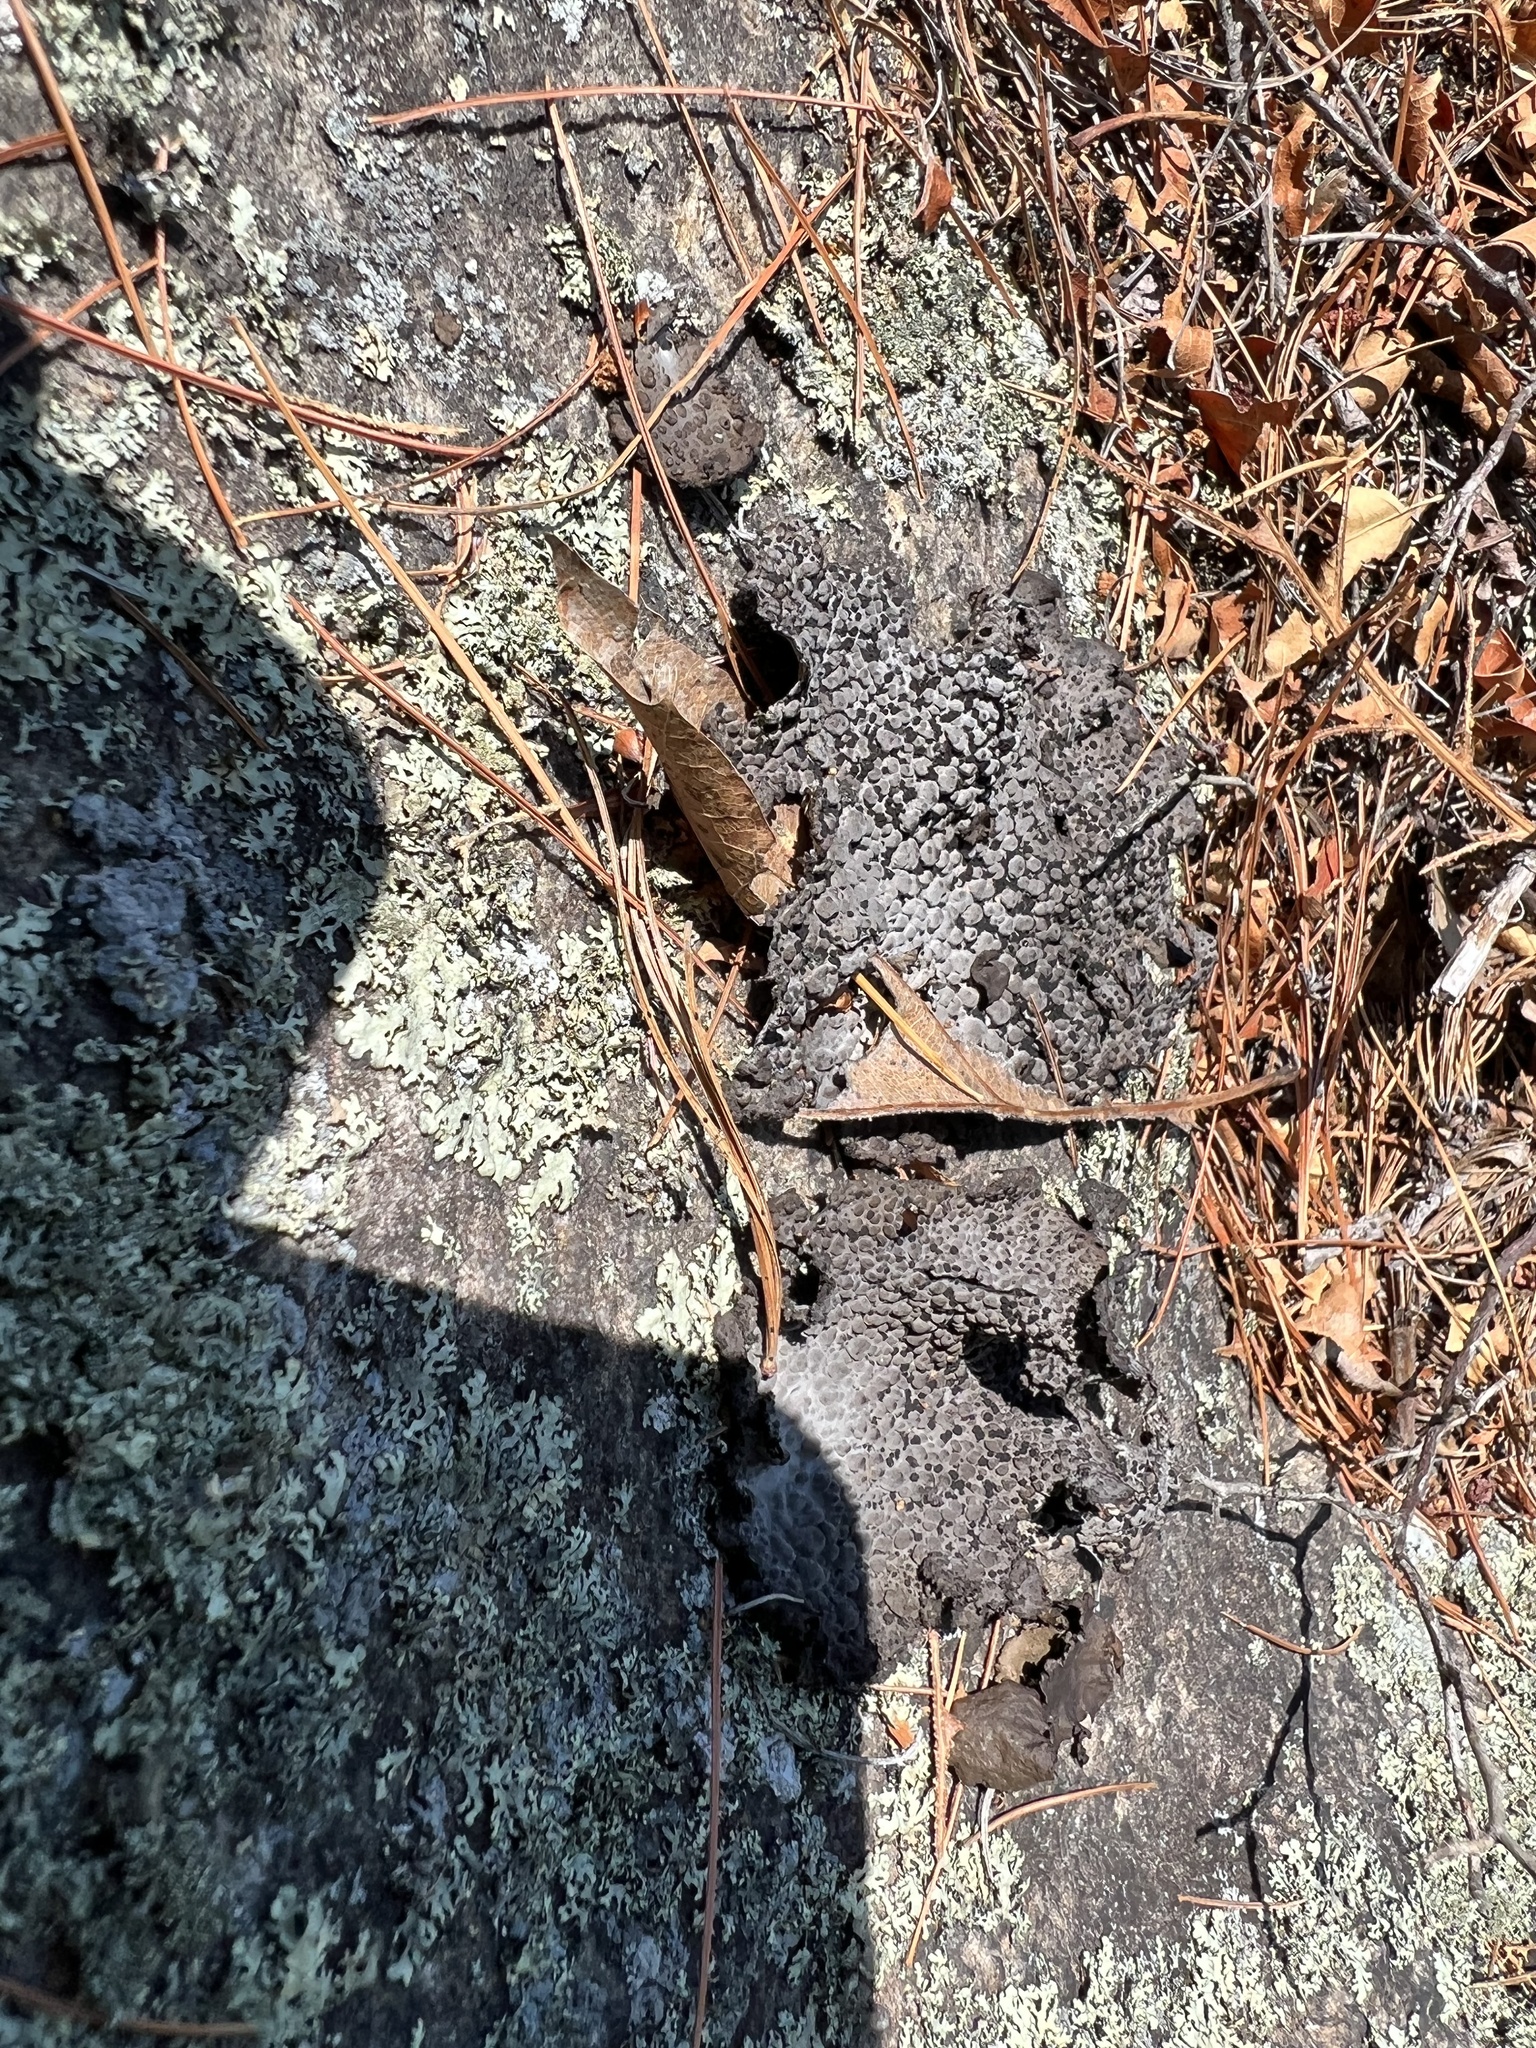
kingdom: Fungi
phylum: Ascomycota
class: Lecanoromycetes
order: Umbilicariales
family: Umbilicariaceae
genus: Lasallia
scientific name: Lasallia papulosa
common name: Common toadskin lichen
